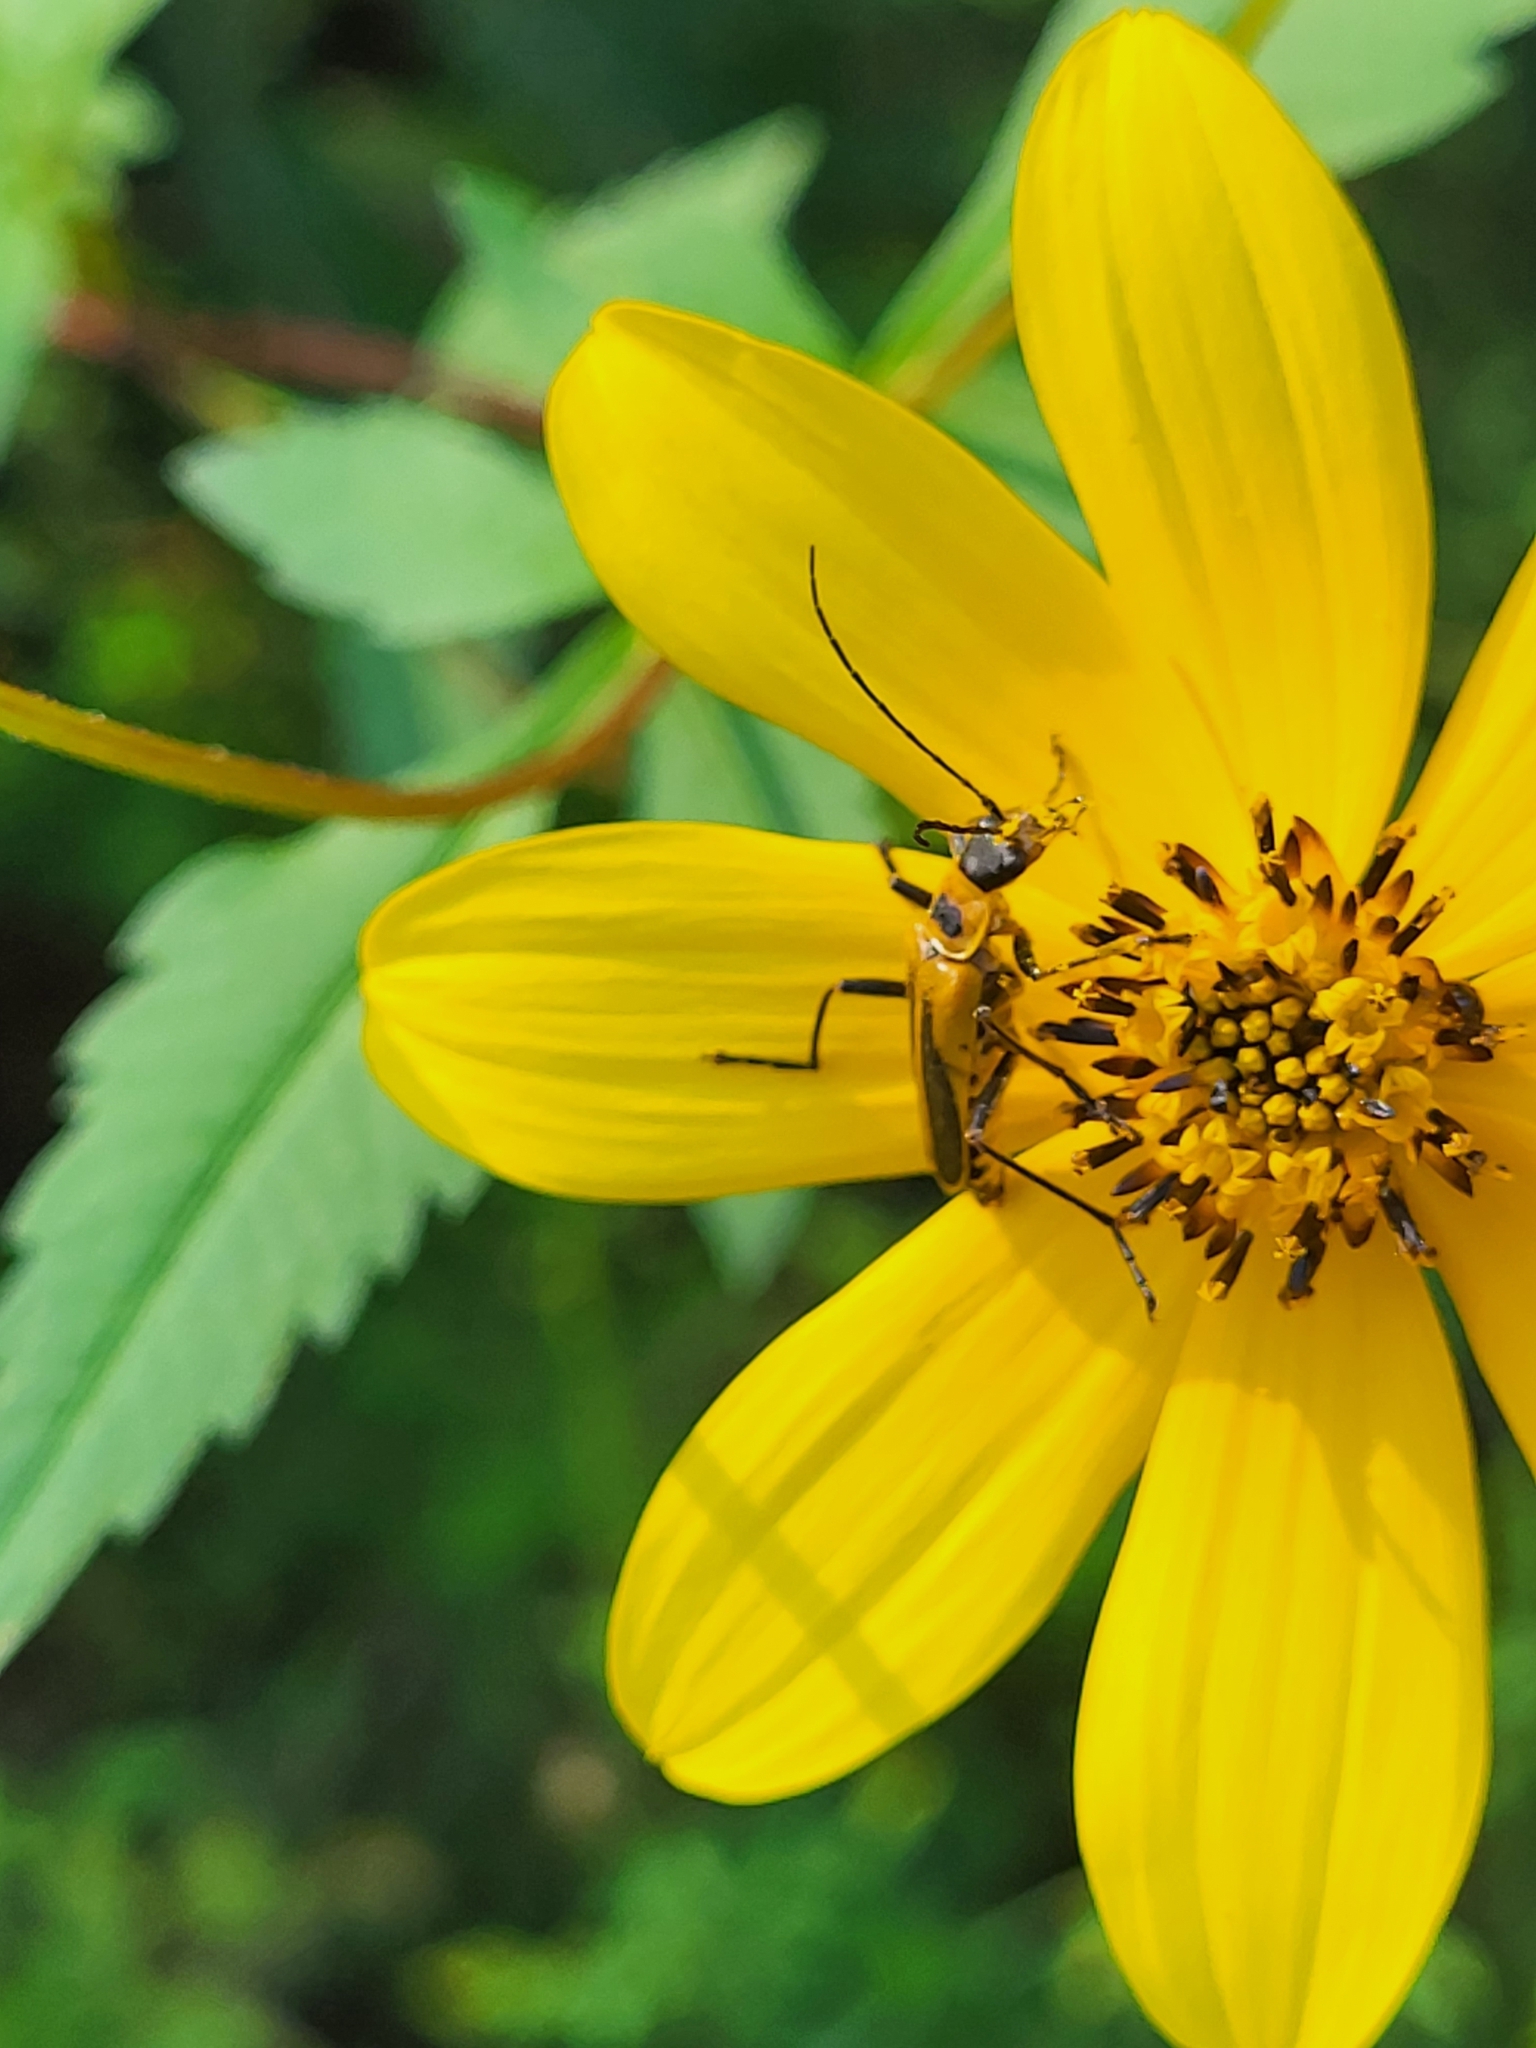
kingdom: Animalia
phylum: Arthropoda
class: Insecta
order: Coleoptera
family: Cantharidae
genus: Chauliognathus
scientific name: Chauliognathus pensylvanicus
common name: Goldenrod soldier beetle
